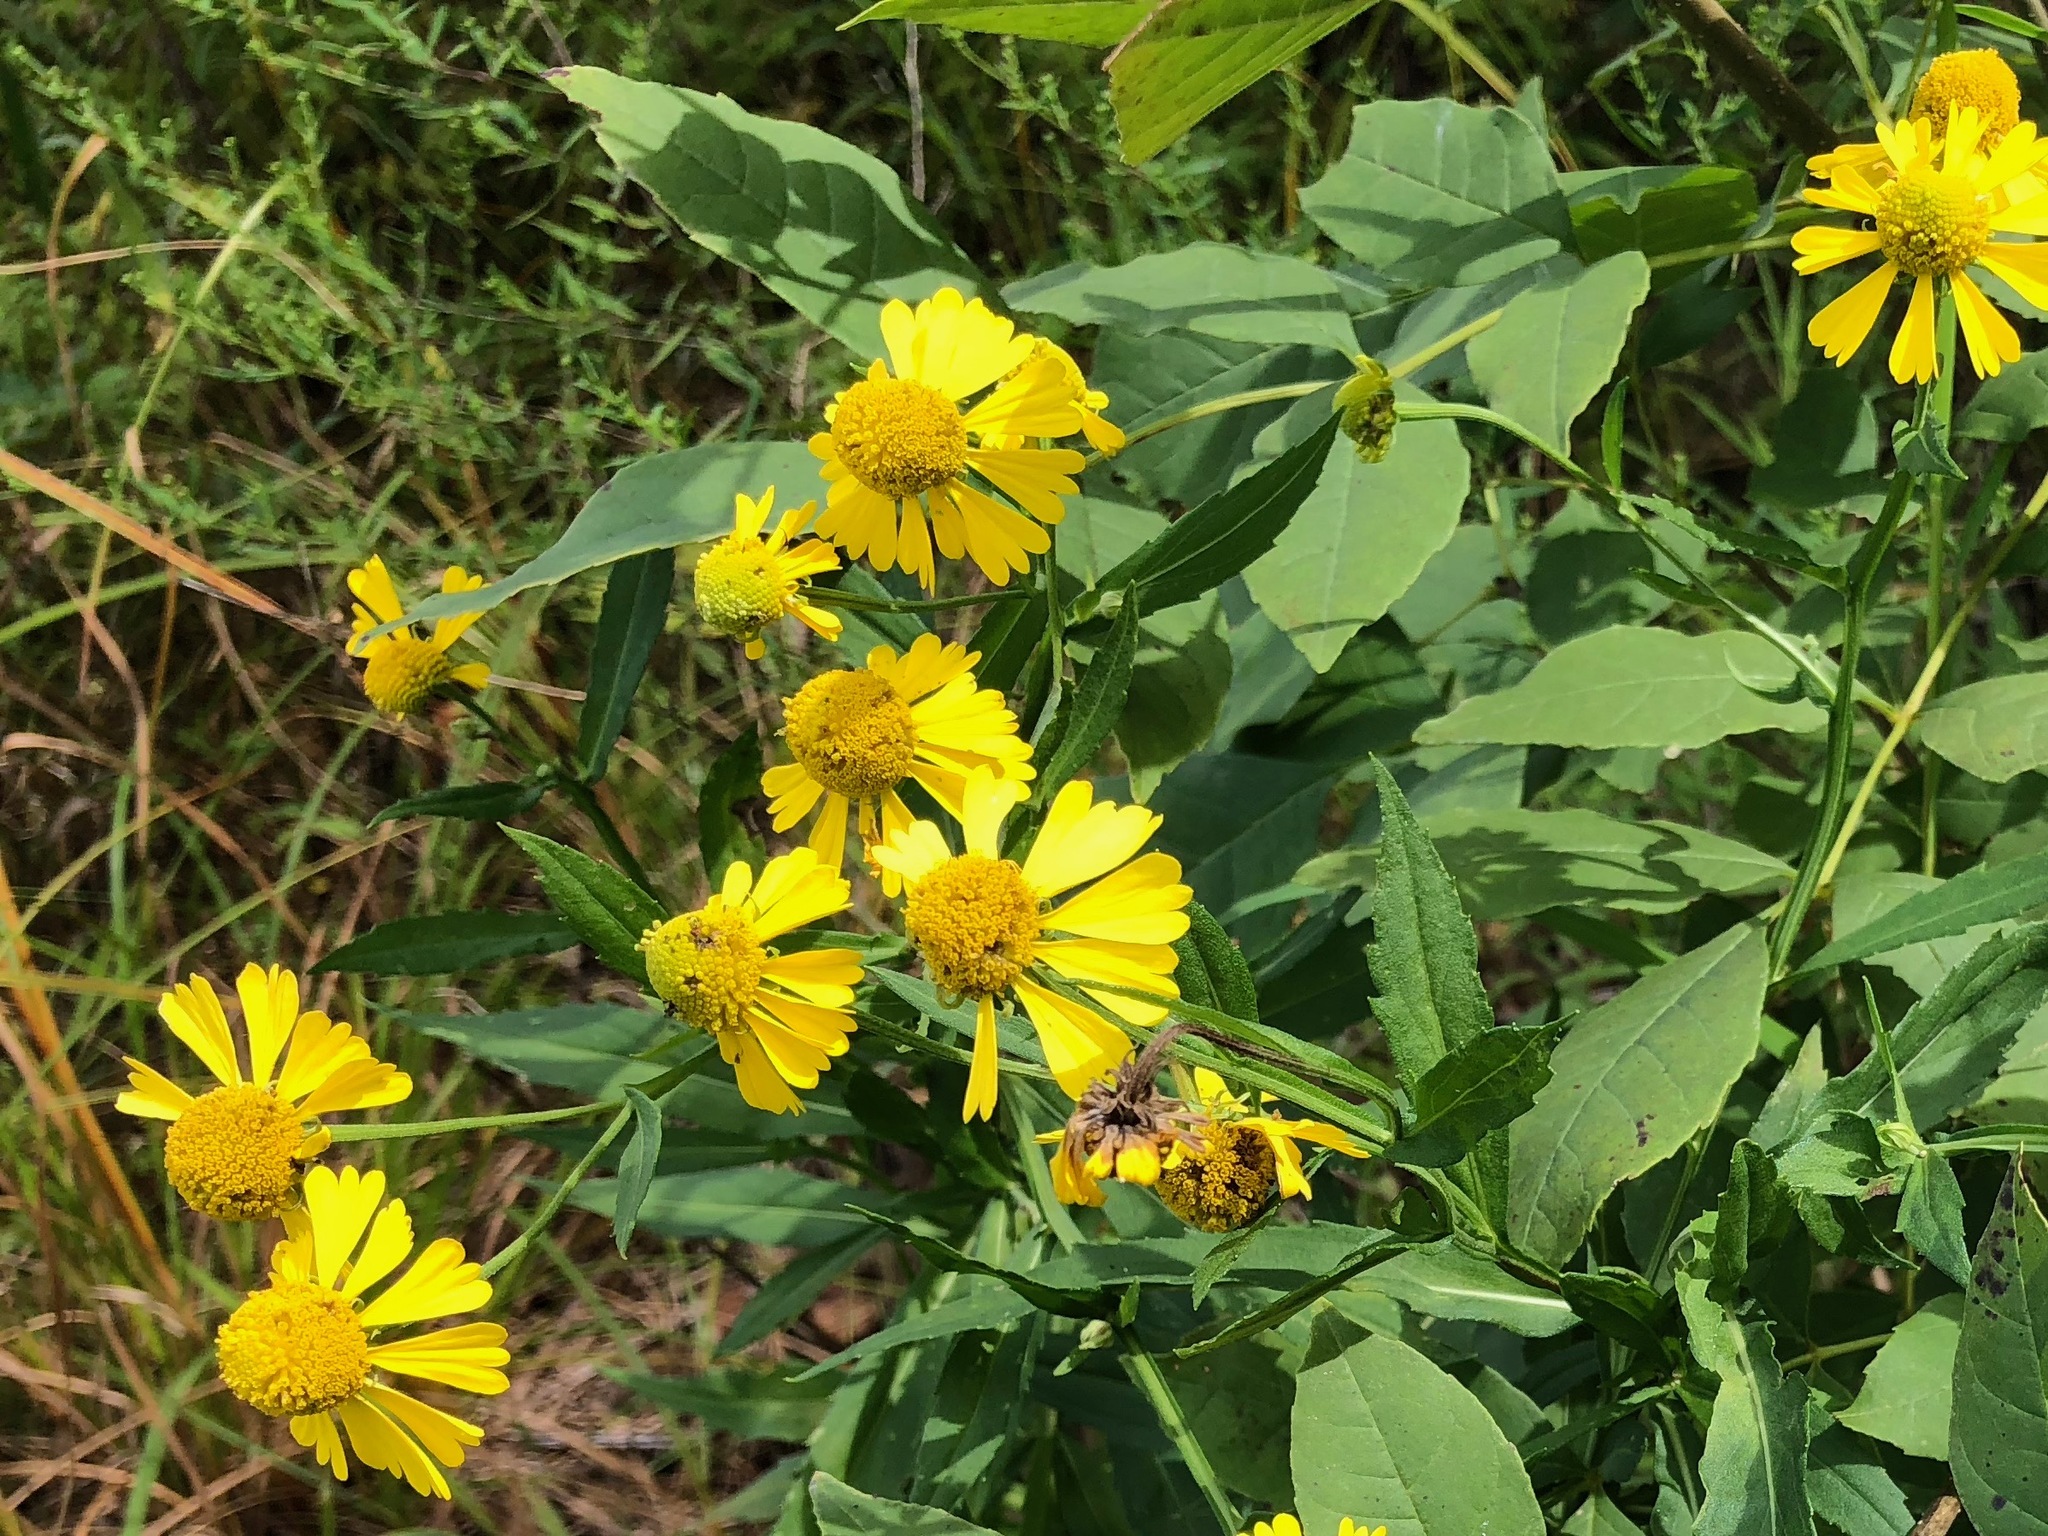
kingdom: Plantae
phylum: Tracheophyta
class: Magnoliopsida
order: Asterales
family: Asteraceae
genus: Helenium
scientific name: Helenium autumnale
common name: Sneezeweed
